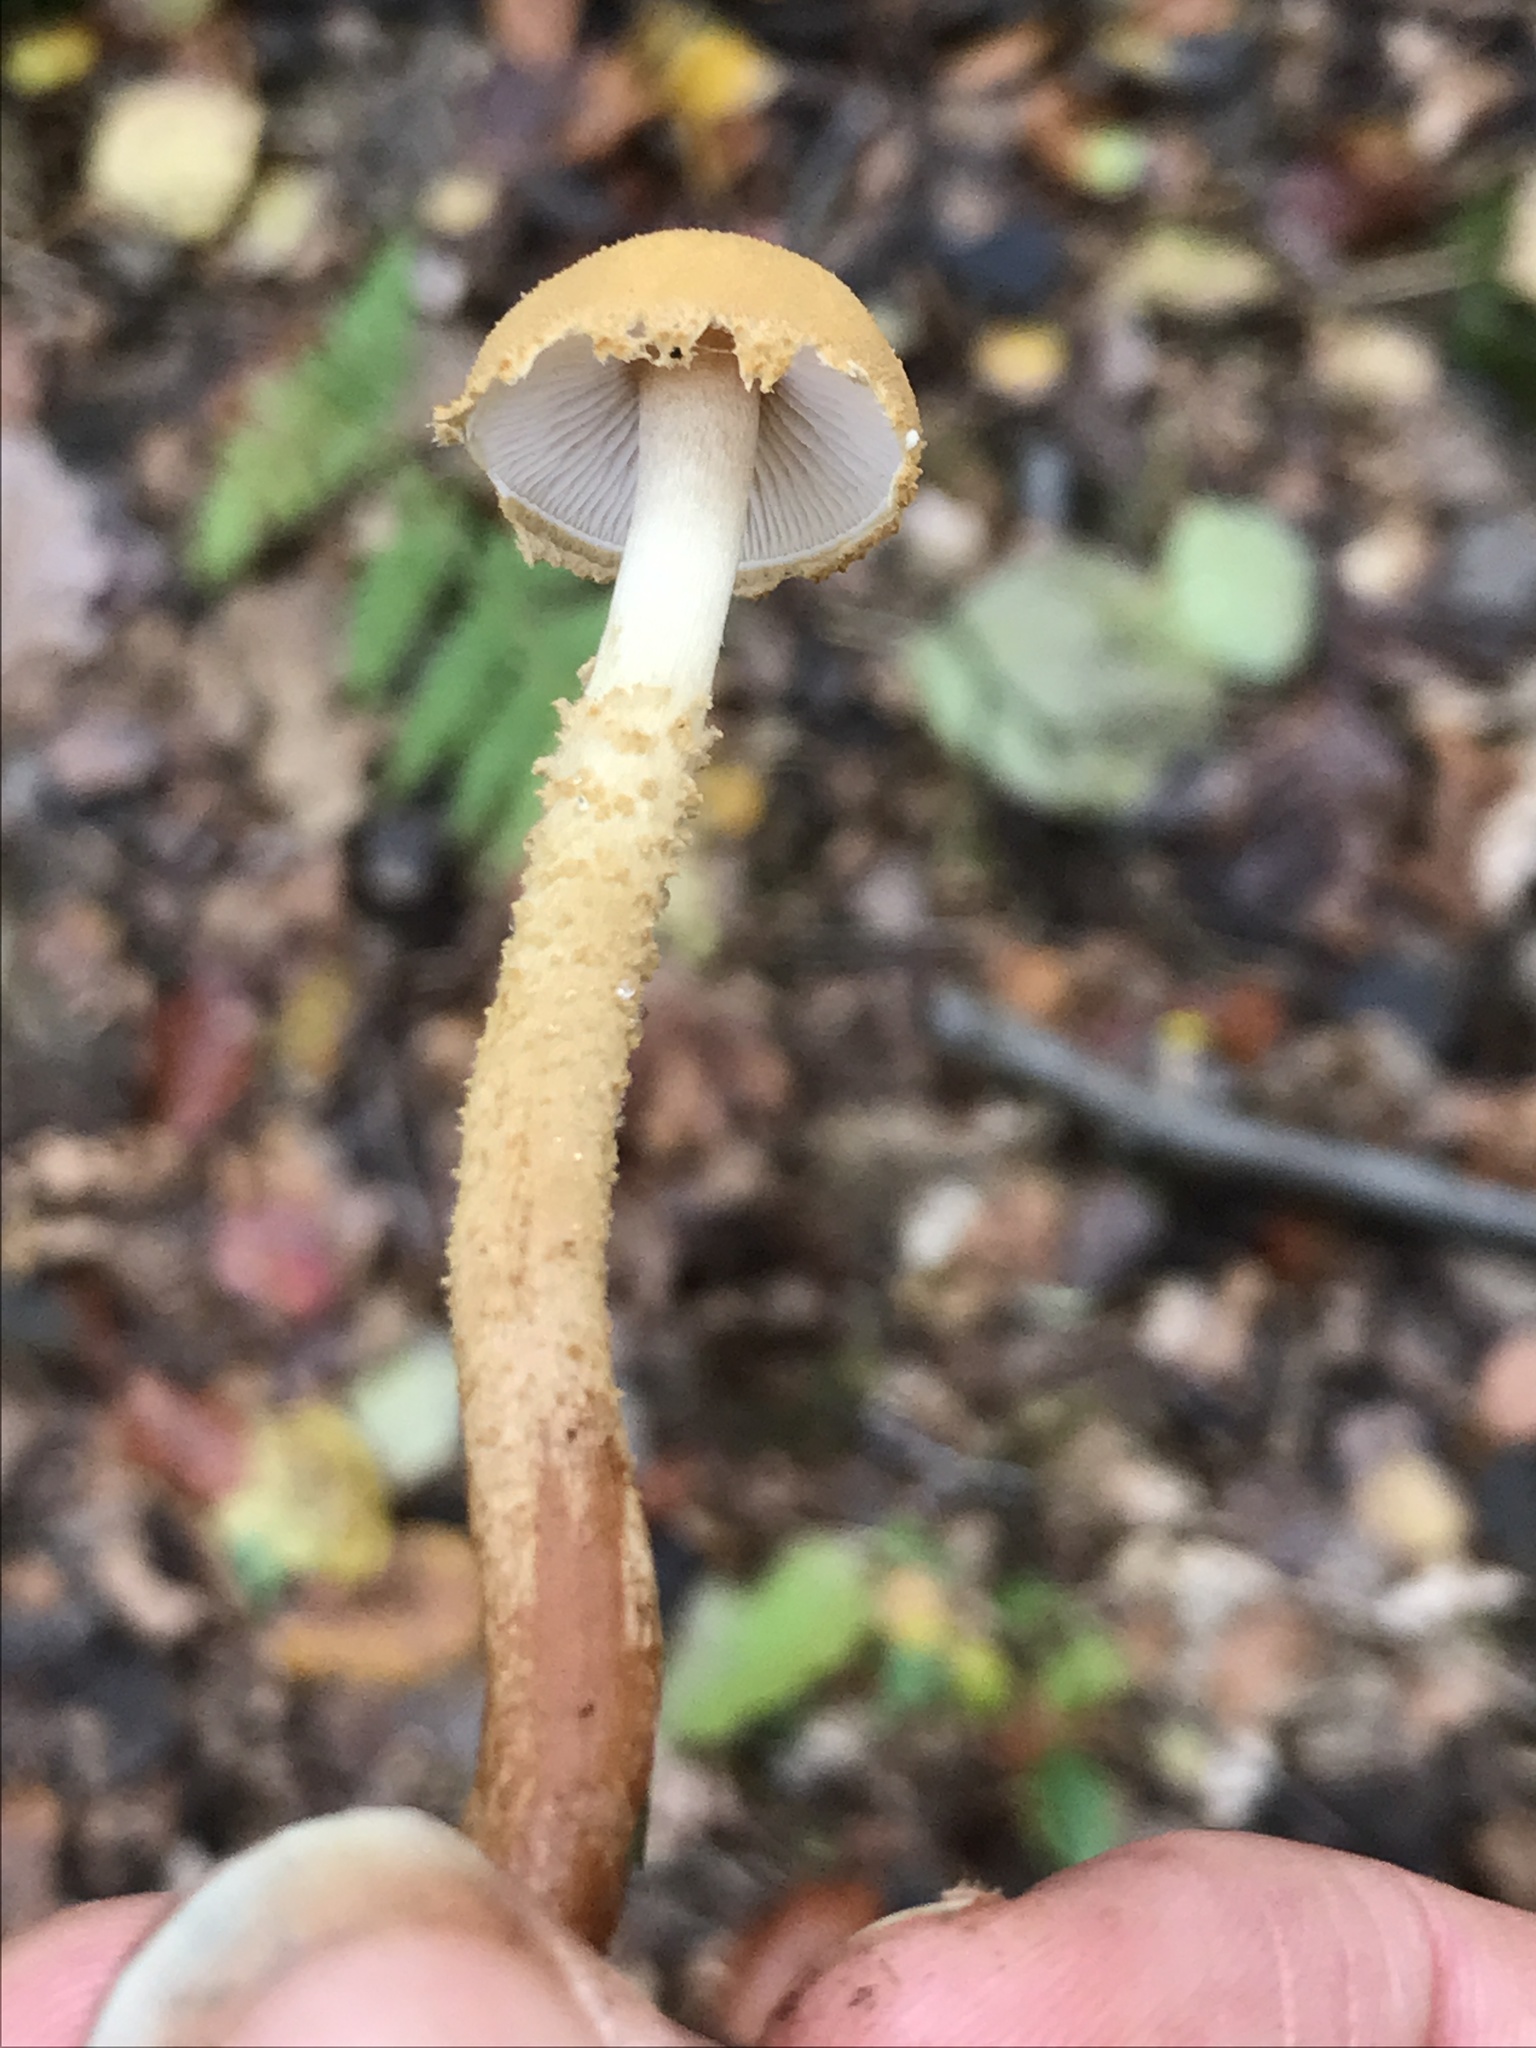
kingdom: Fungi
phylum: Basidiomycota
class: Agaricomycetes
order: Agaricales
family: Tricholomataceae
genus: Cystoderma
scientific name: Cystoderma amianthinum
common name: Earthy powdercap
